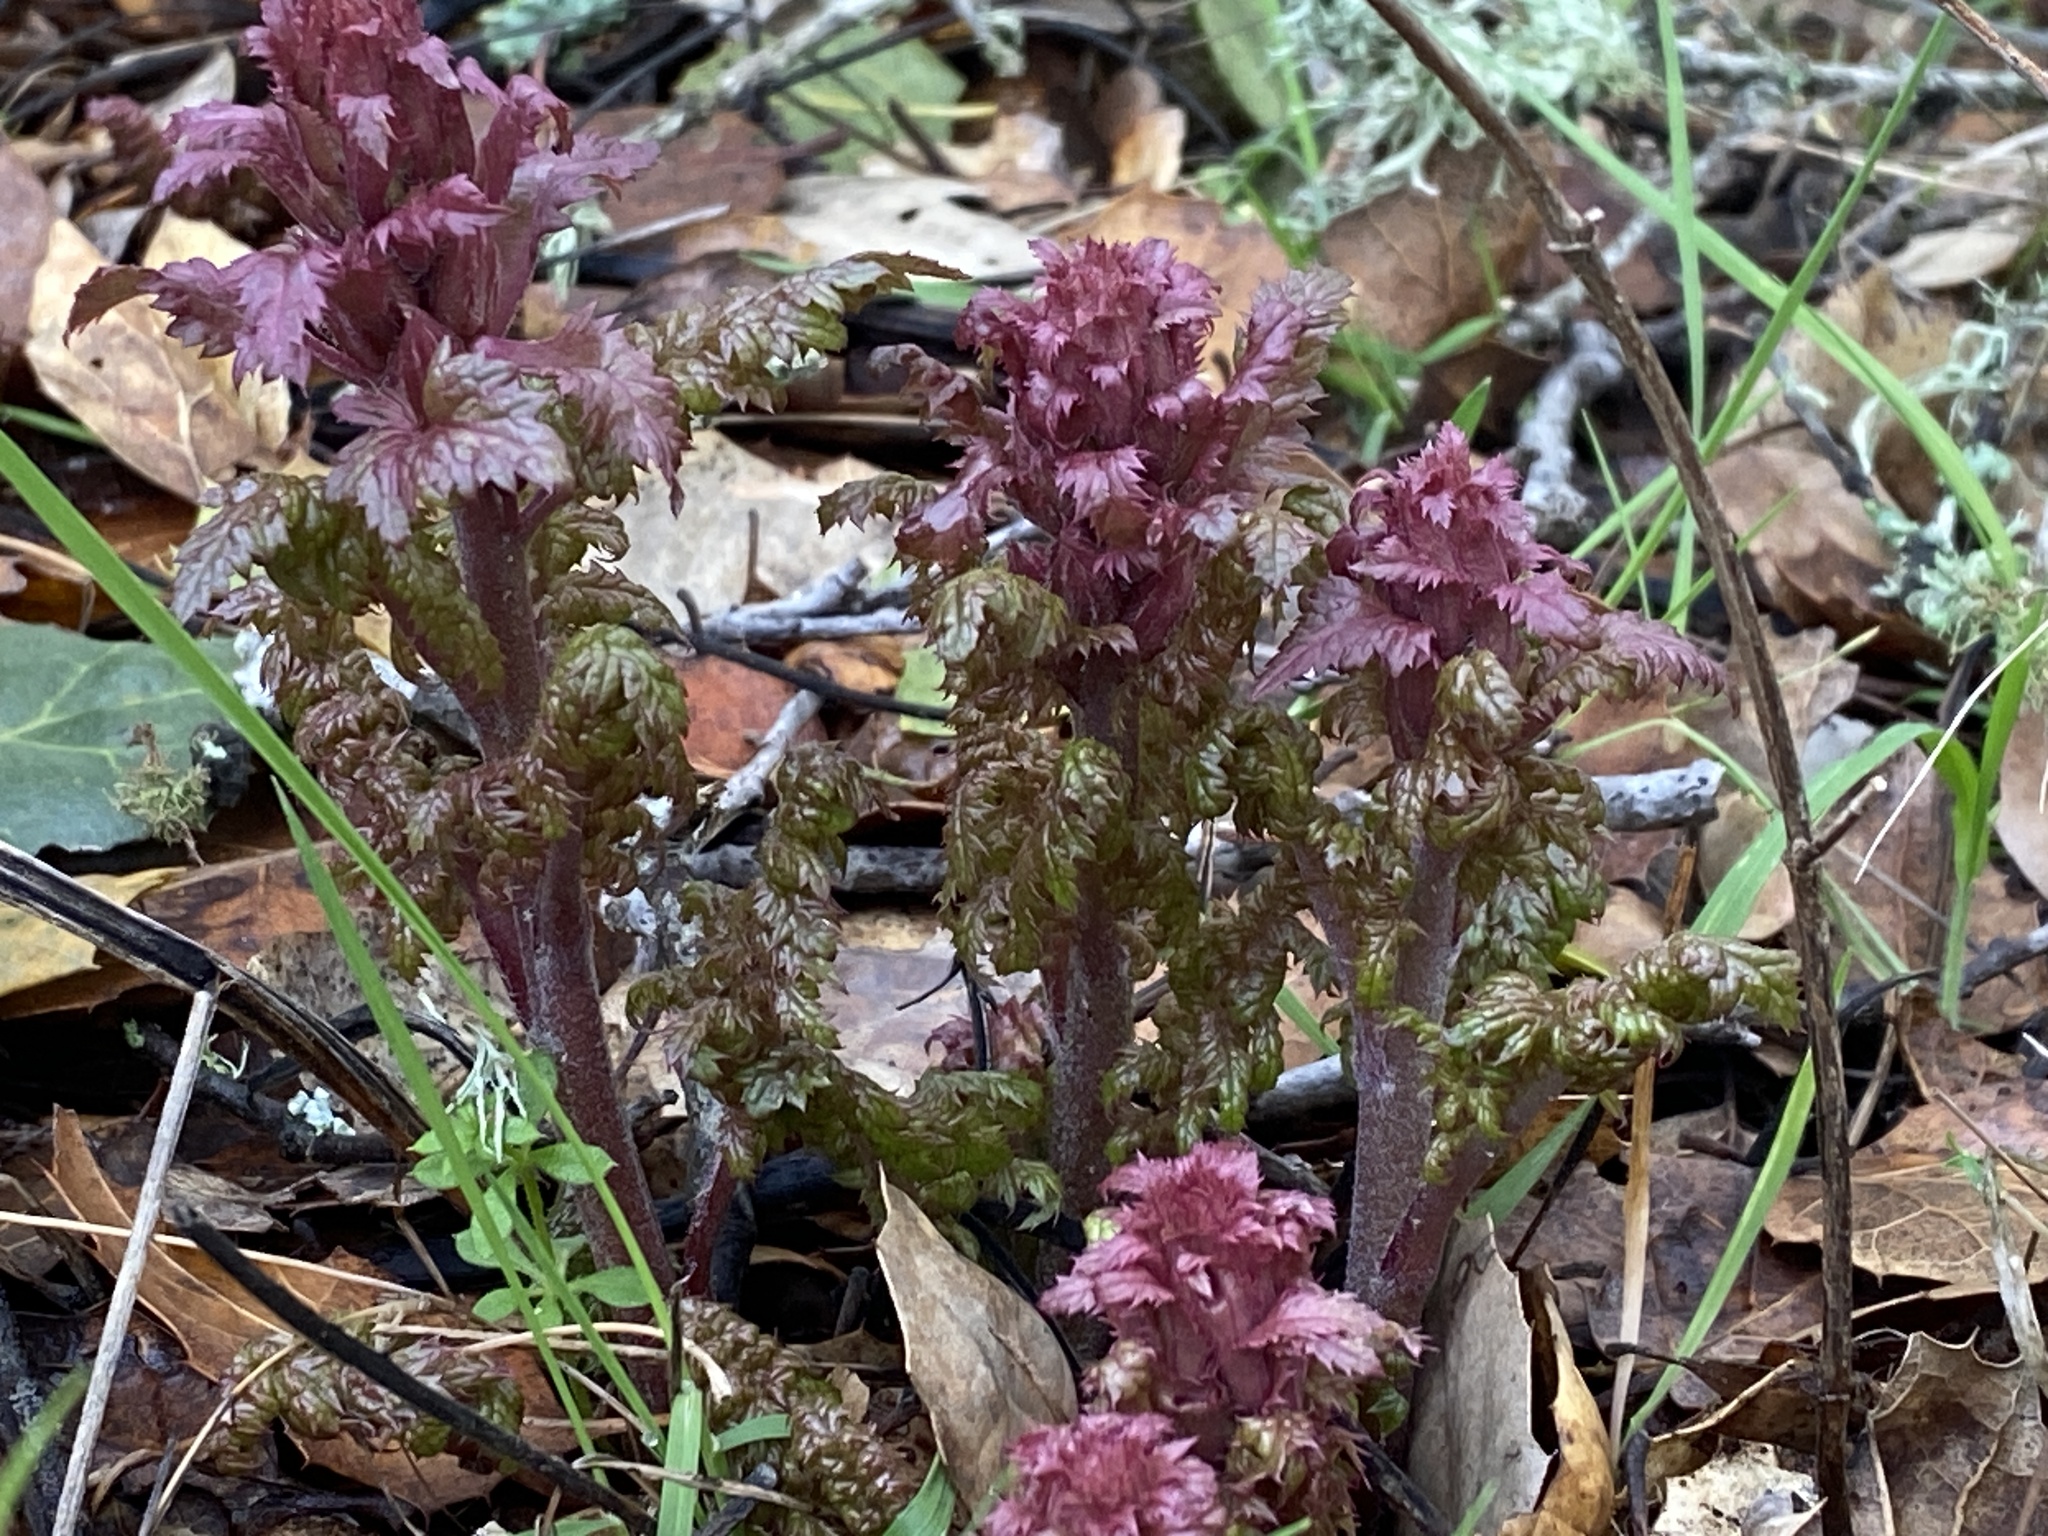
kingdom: Plantae
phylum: Tracheophyta
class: Magnoliopsida
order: Lamiales
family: Orobanchaceae
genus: Pedicularis
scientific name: Pedicularis densiflora
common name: Indian warrior
